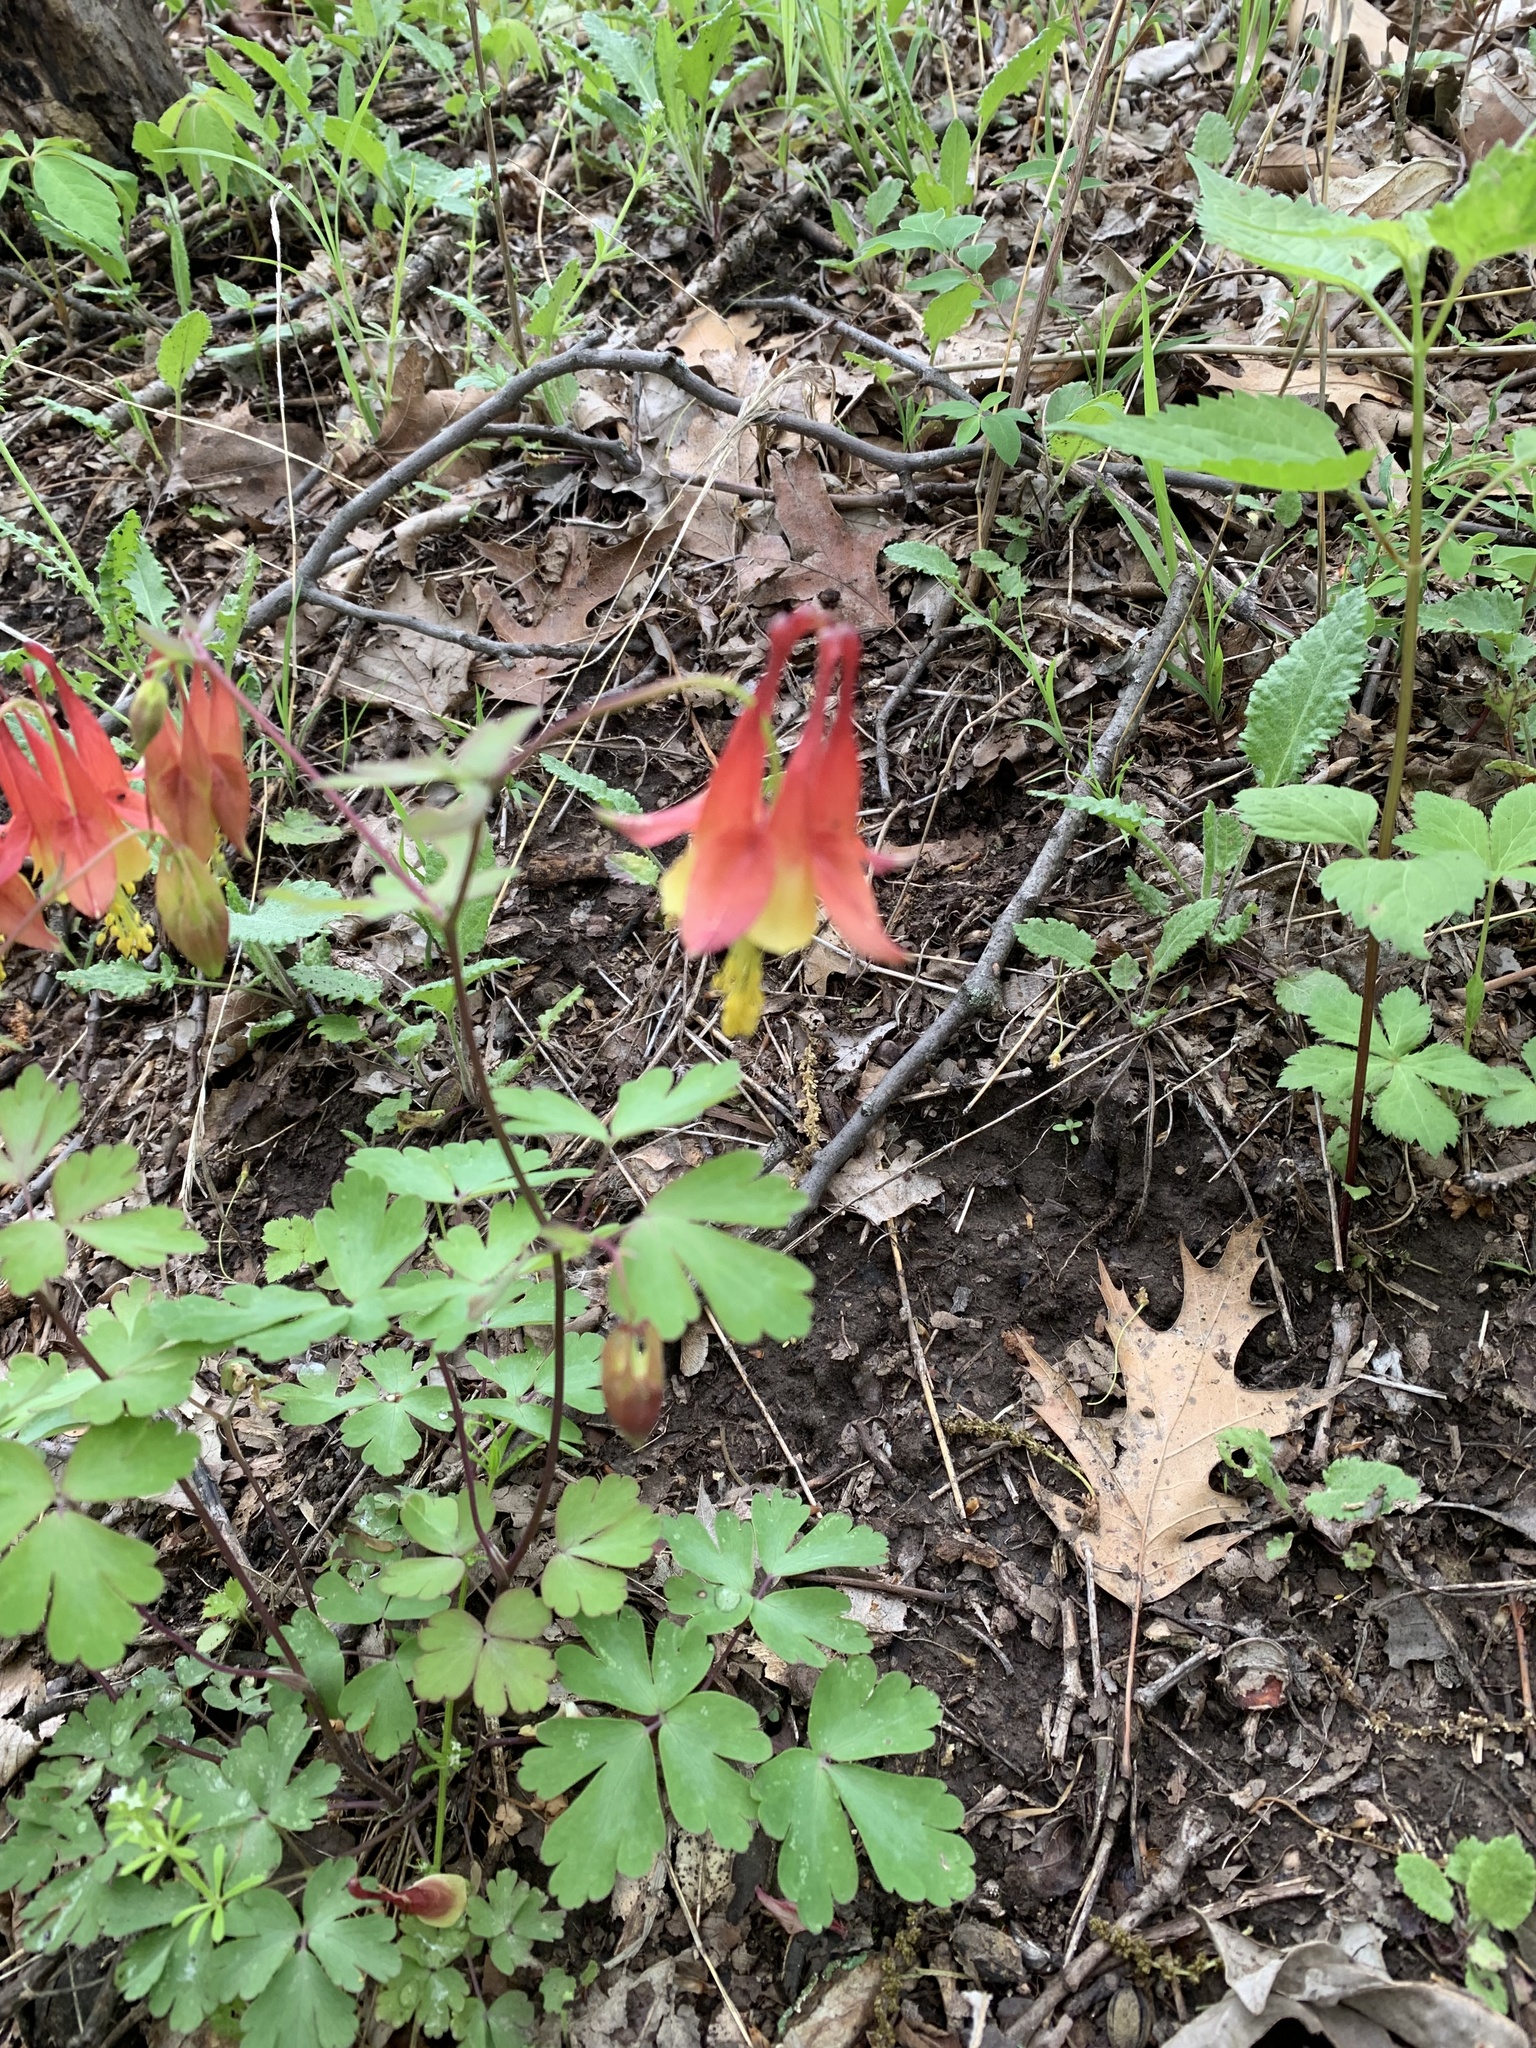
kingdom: Plantae
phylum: Tracheophyta
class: Magnoliopsida
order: Ranunculales
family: Ranunculaceae
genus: Aquilegia
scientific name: Aquilegia canadensis
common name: American columbine
